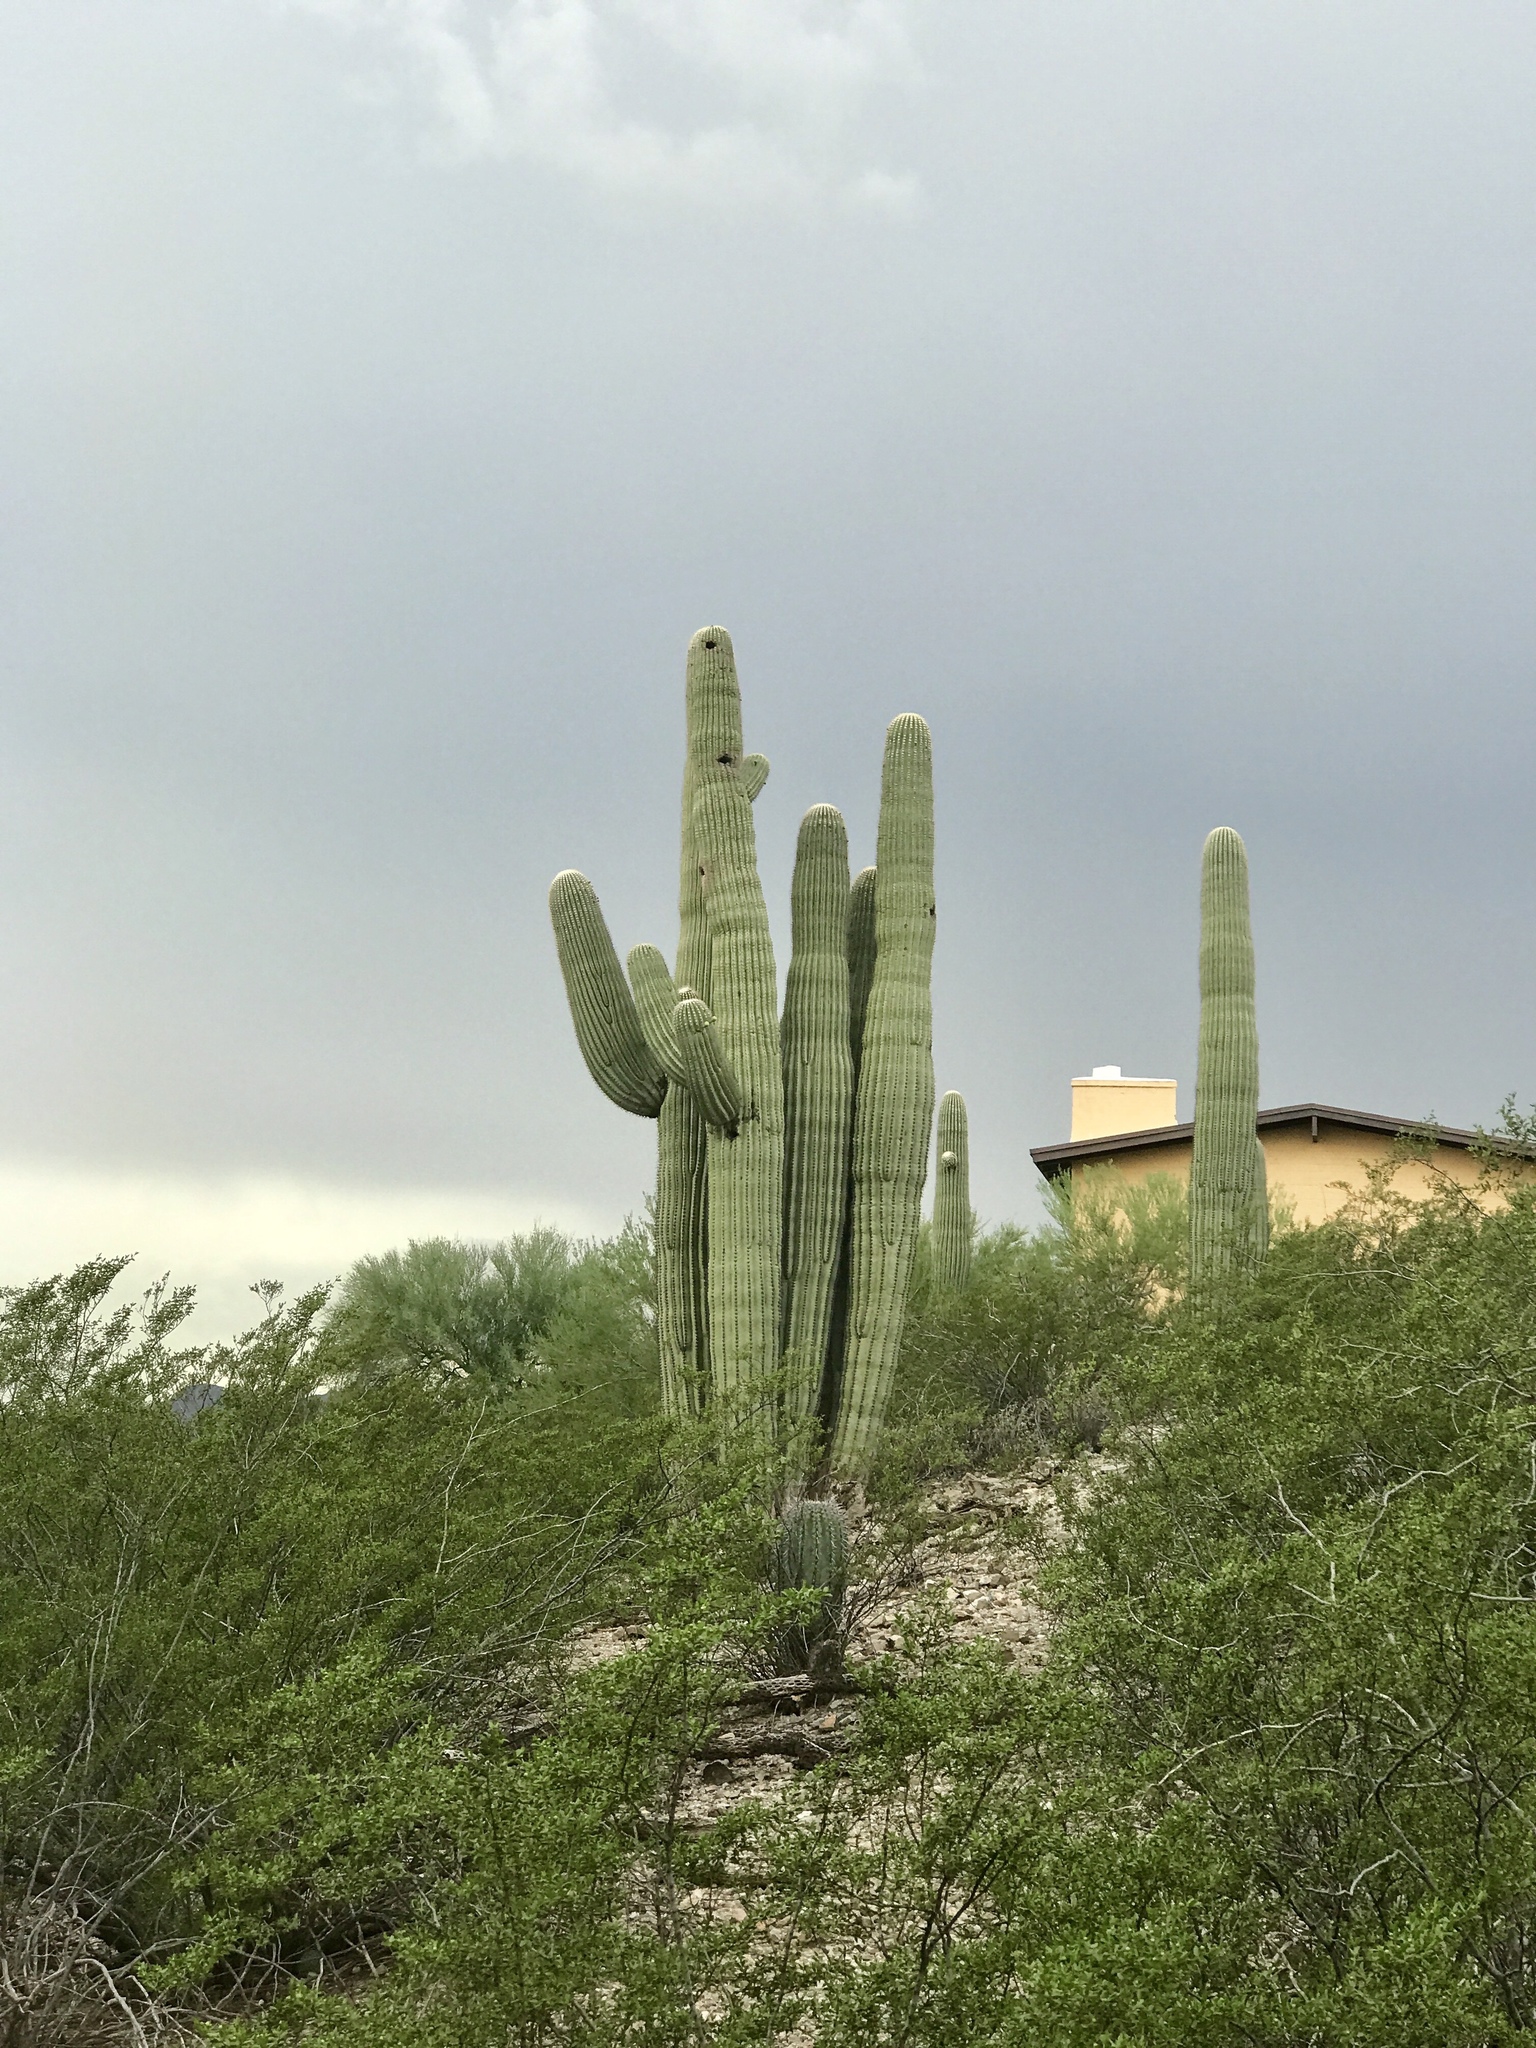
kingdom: Plantae
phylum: Tracheophyta
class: Magnoliopsida
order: Caryophyllales
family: Cactaceae
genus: Carnegiea
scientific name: Carnegiea gigantea
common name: Saguaro
